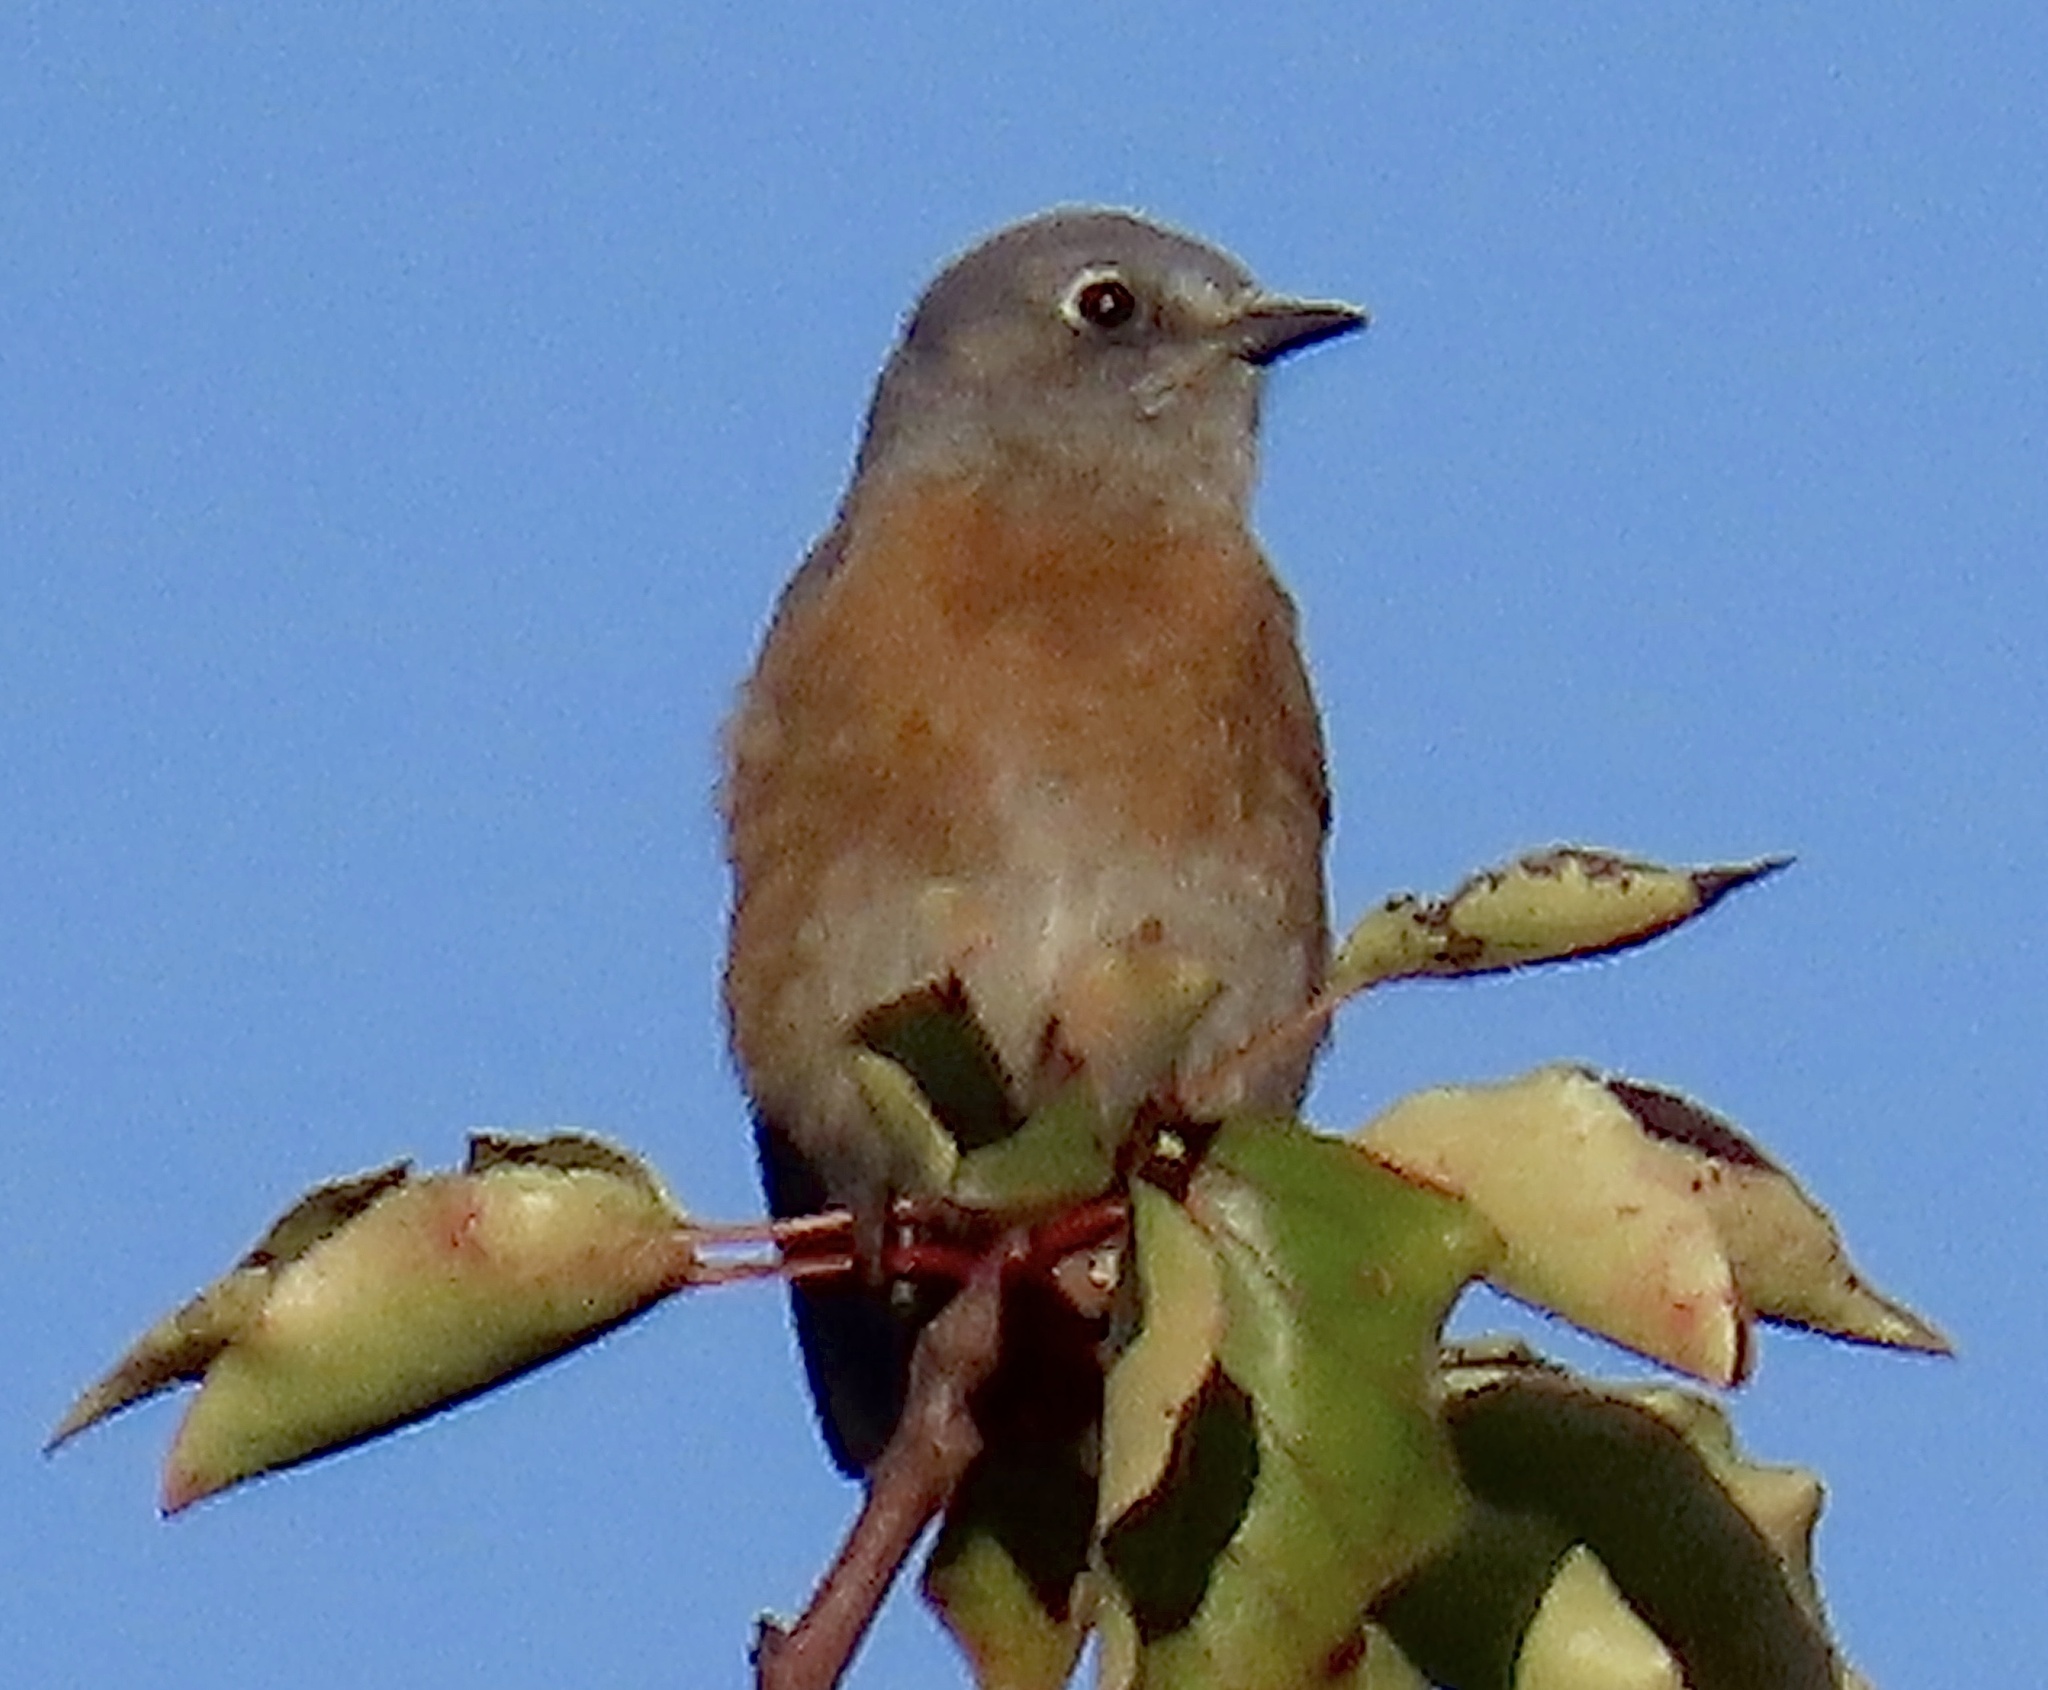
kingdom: Animalia
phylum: Chordata
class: Aves
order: Passeriformes
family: Turdidae
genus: Sialia
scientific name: Sialia mexicana
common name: Western bluebird
